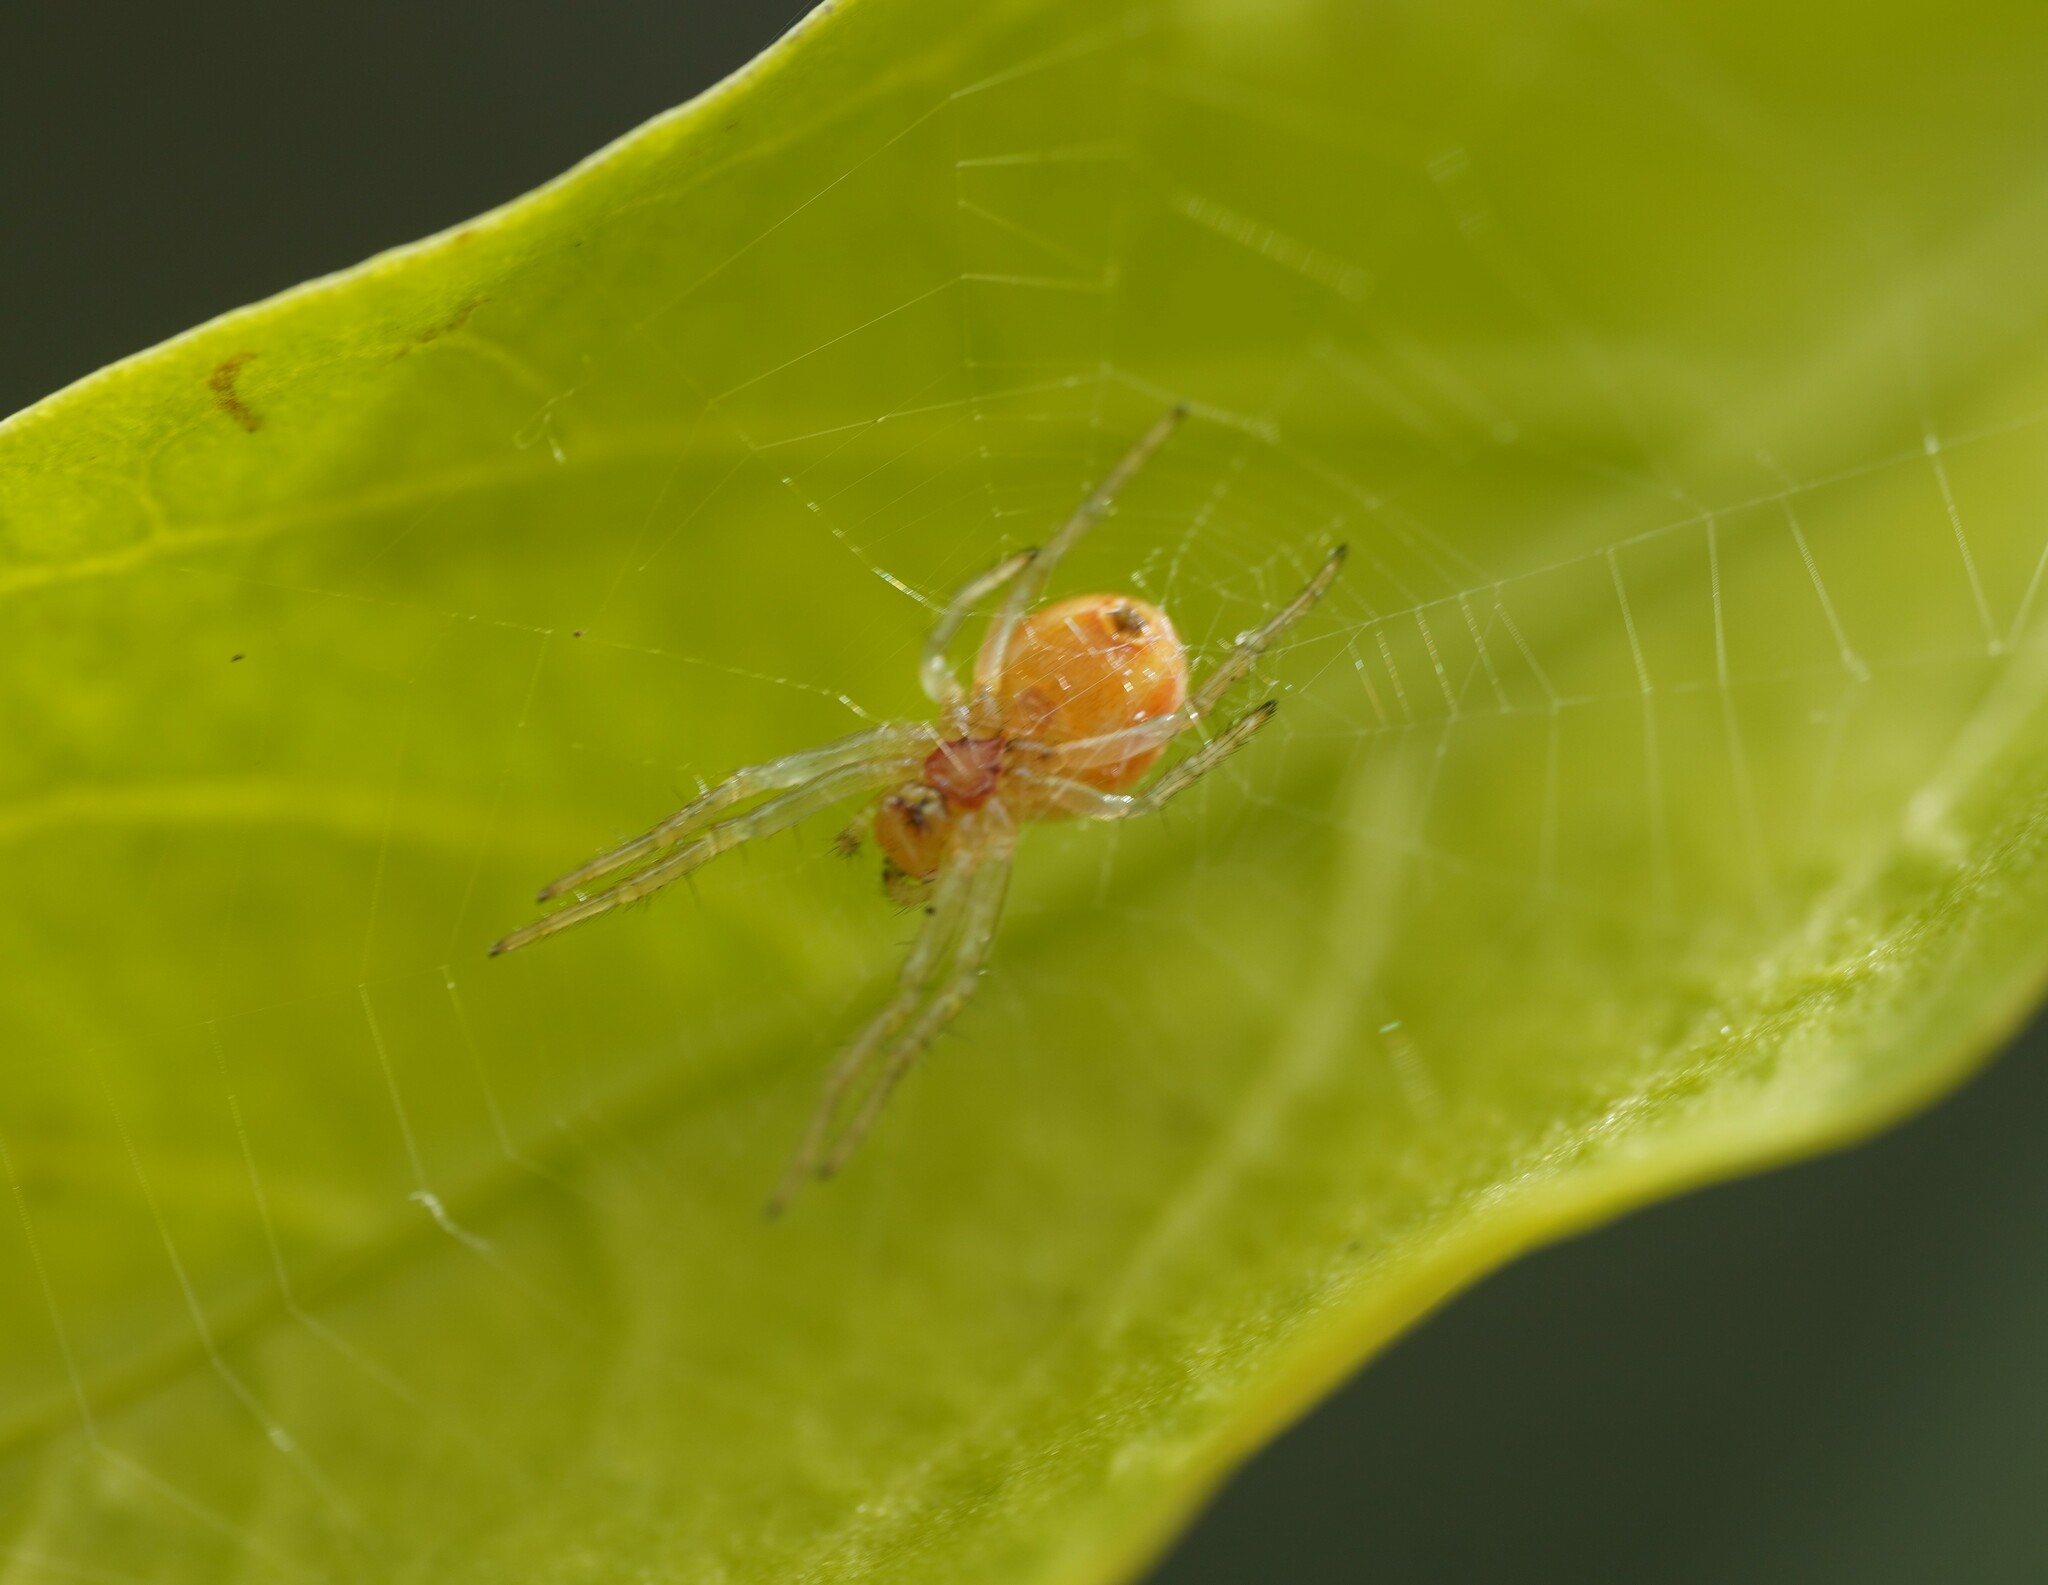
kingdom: Animalia
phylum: Arthropoda
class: Arachnida
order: Araneae
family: Araneidae
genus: Araniella
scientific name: Araniella
